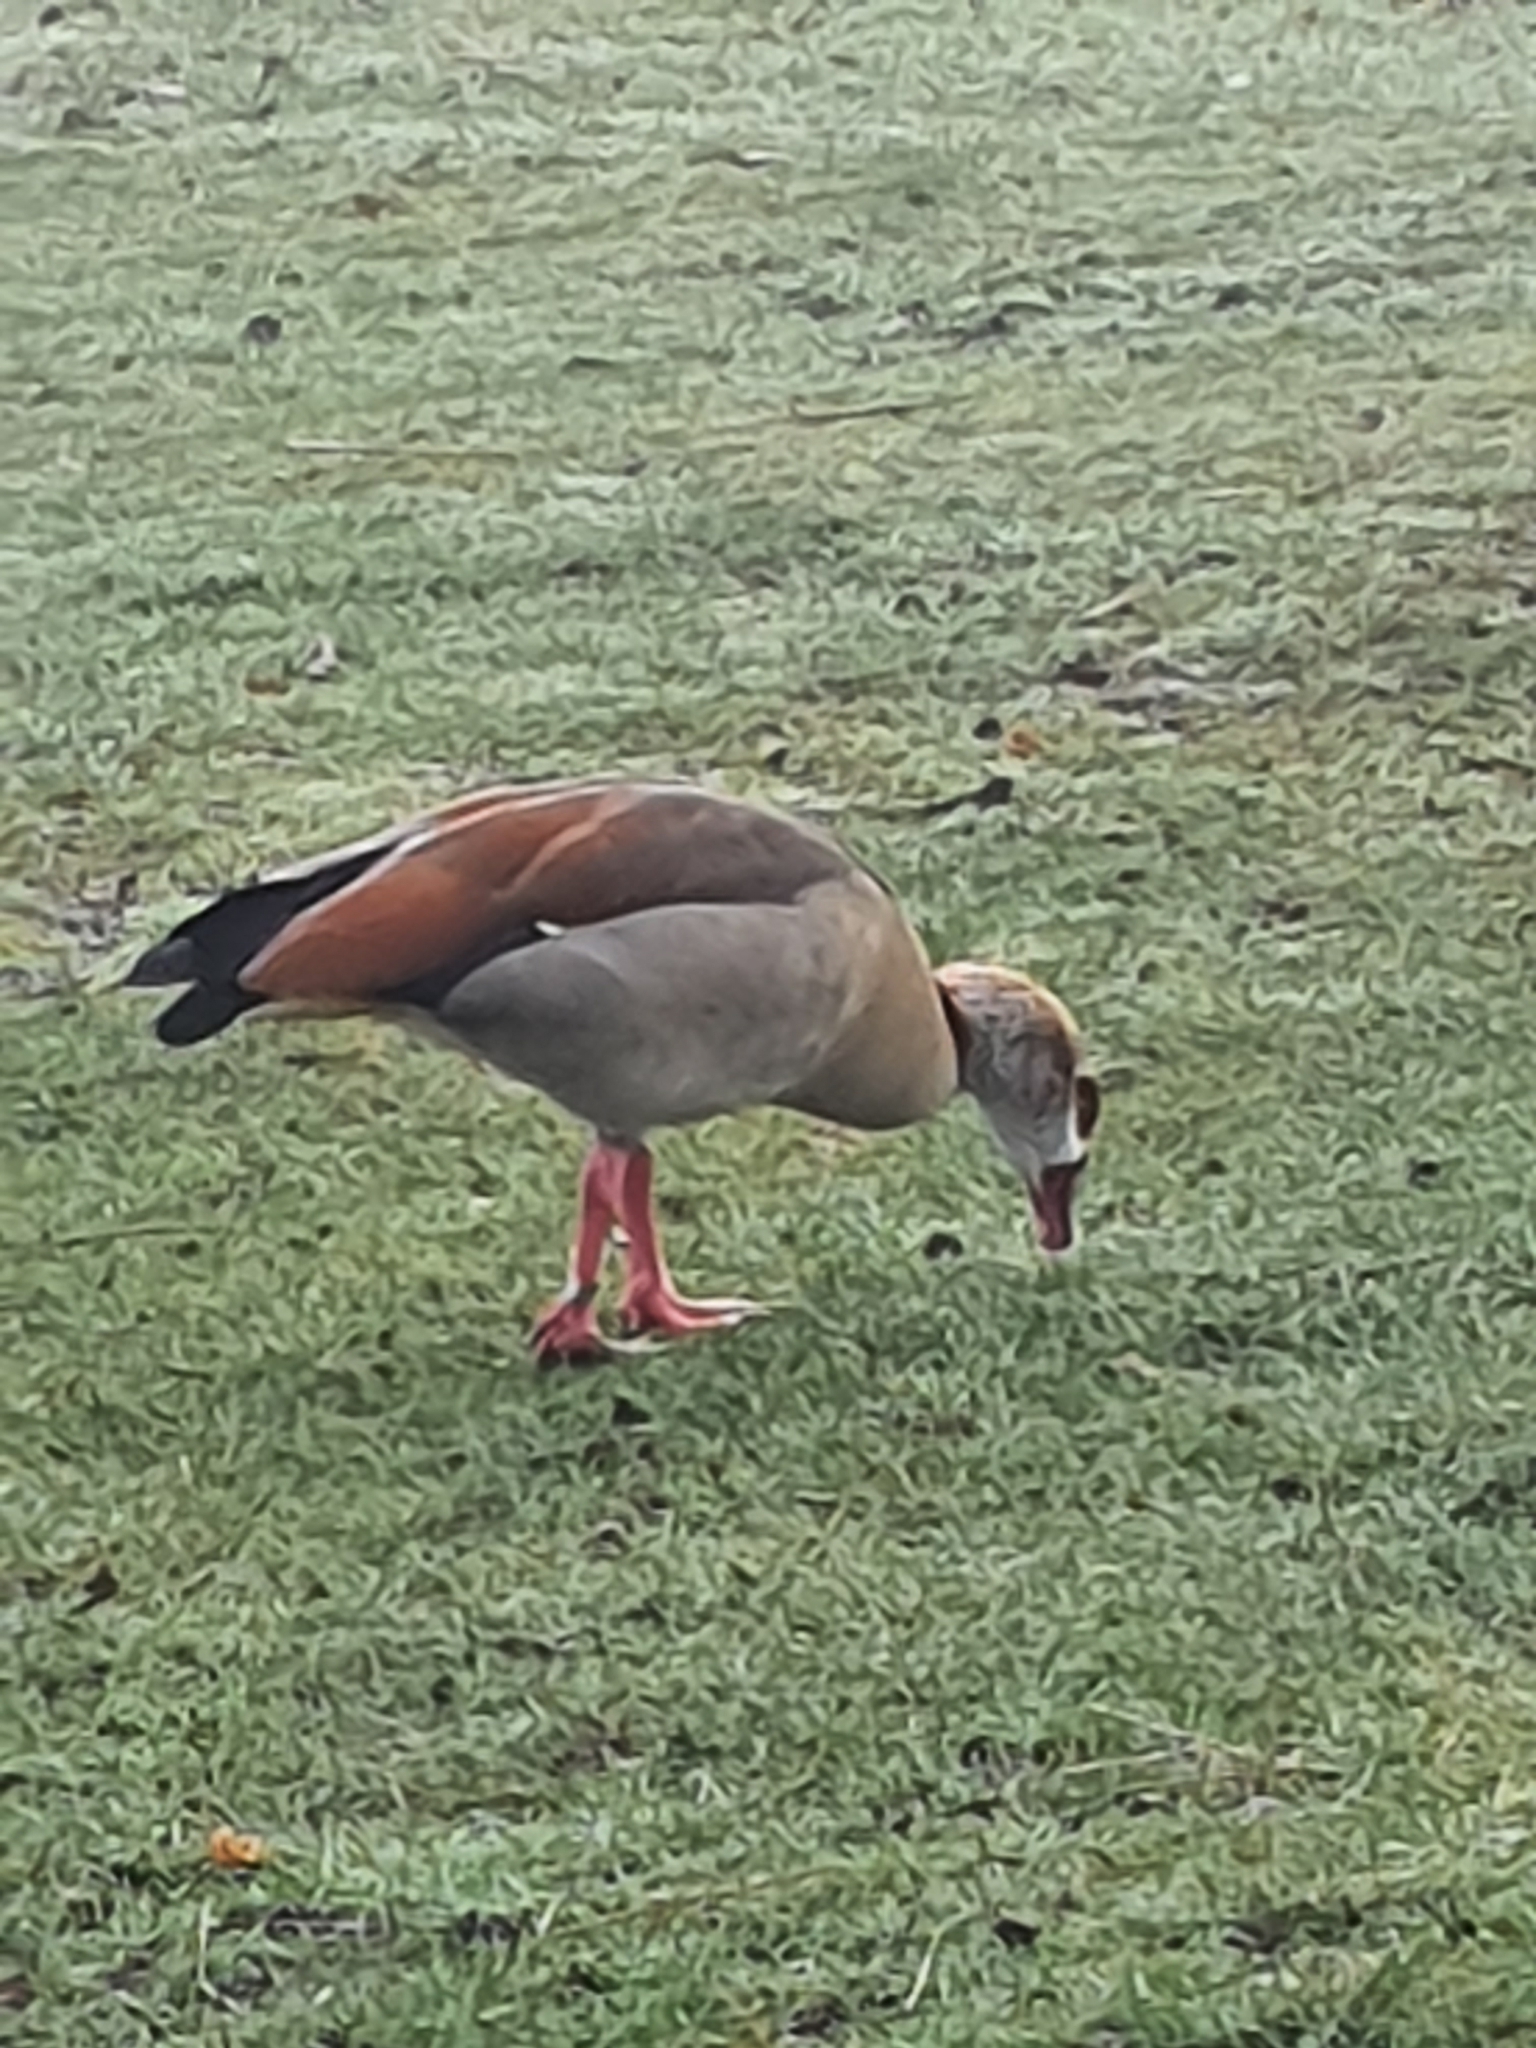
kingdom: Animalia
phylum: Chordata
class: Aves
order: Anseriformes
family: Anatidae
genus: Alopochen
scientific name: Alopochen aegyptiaca
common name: Egyptian goose
